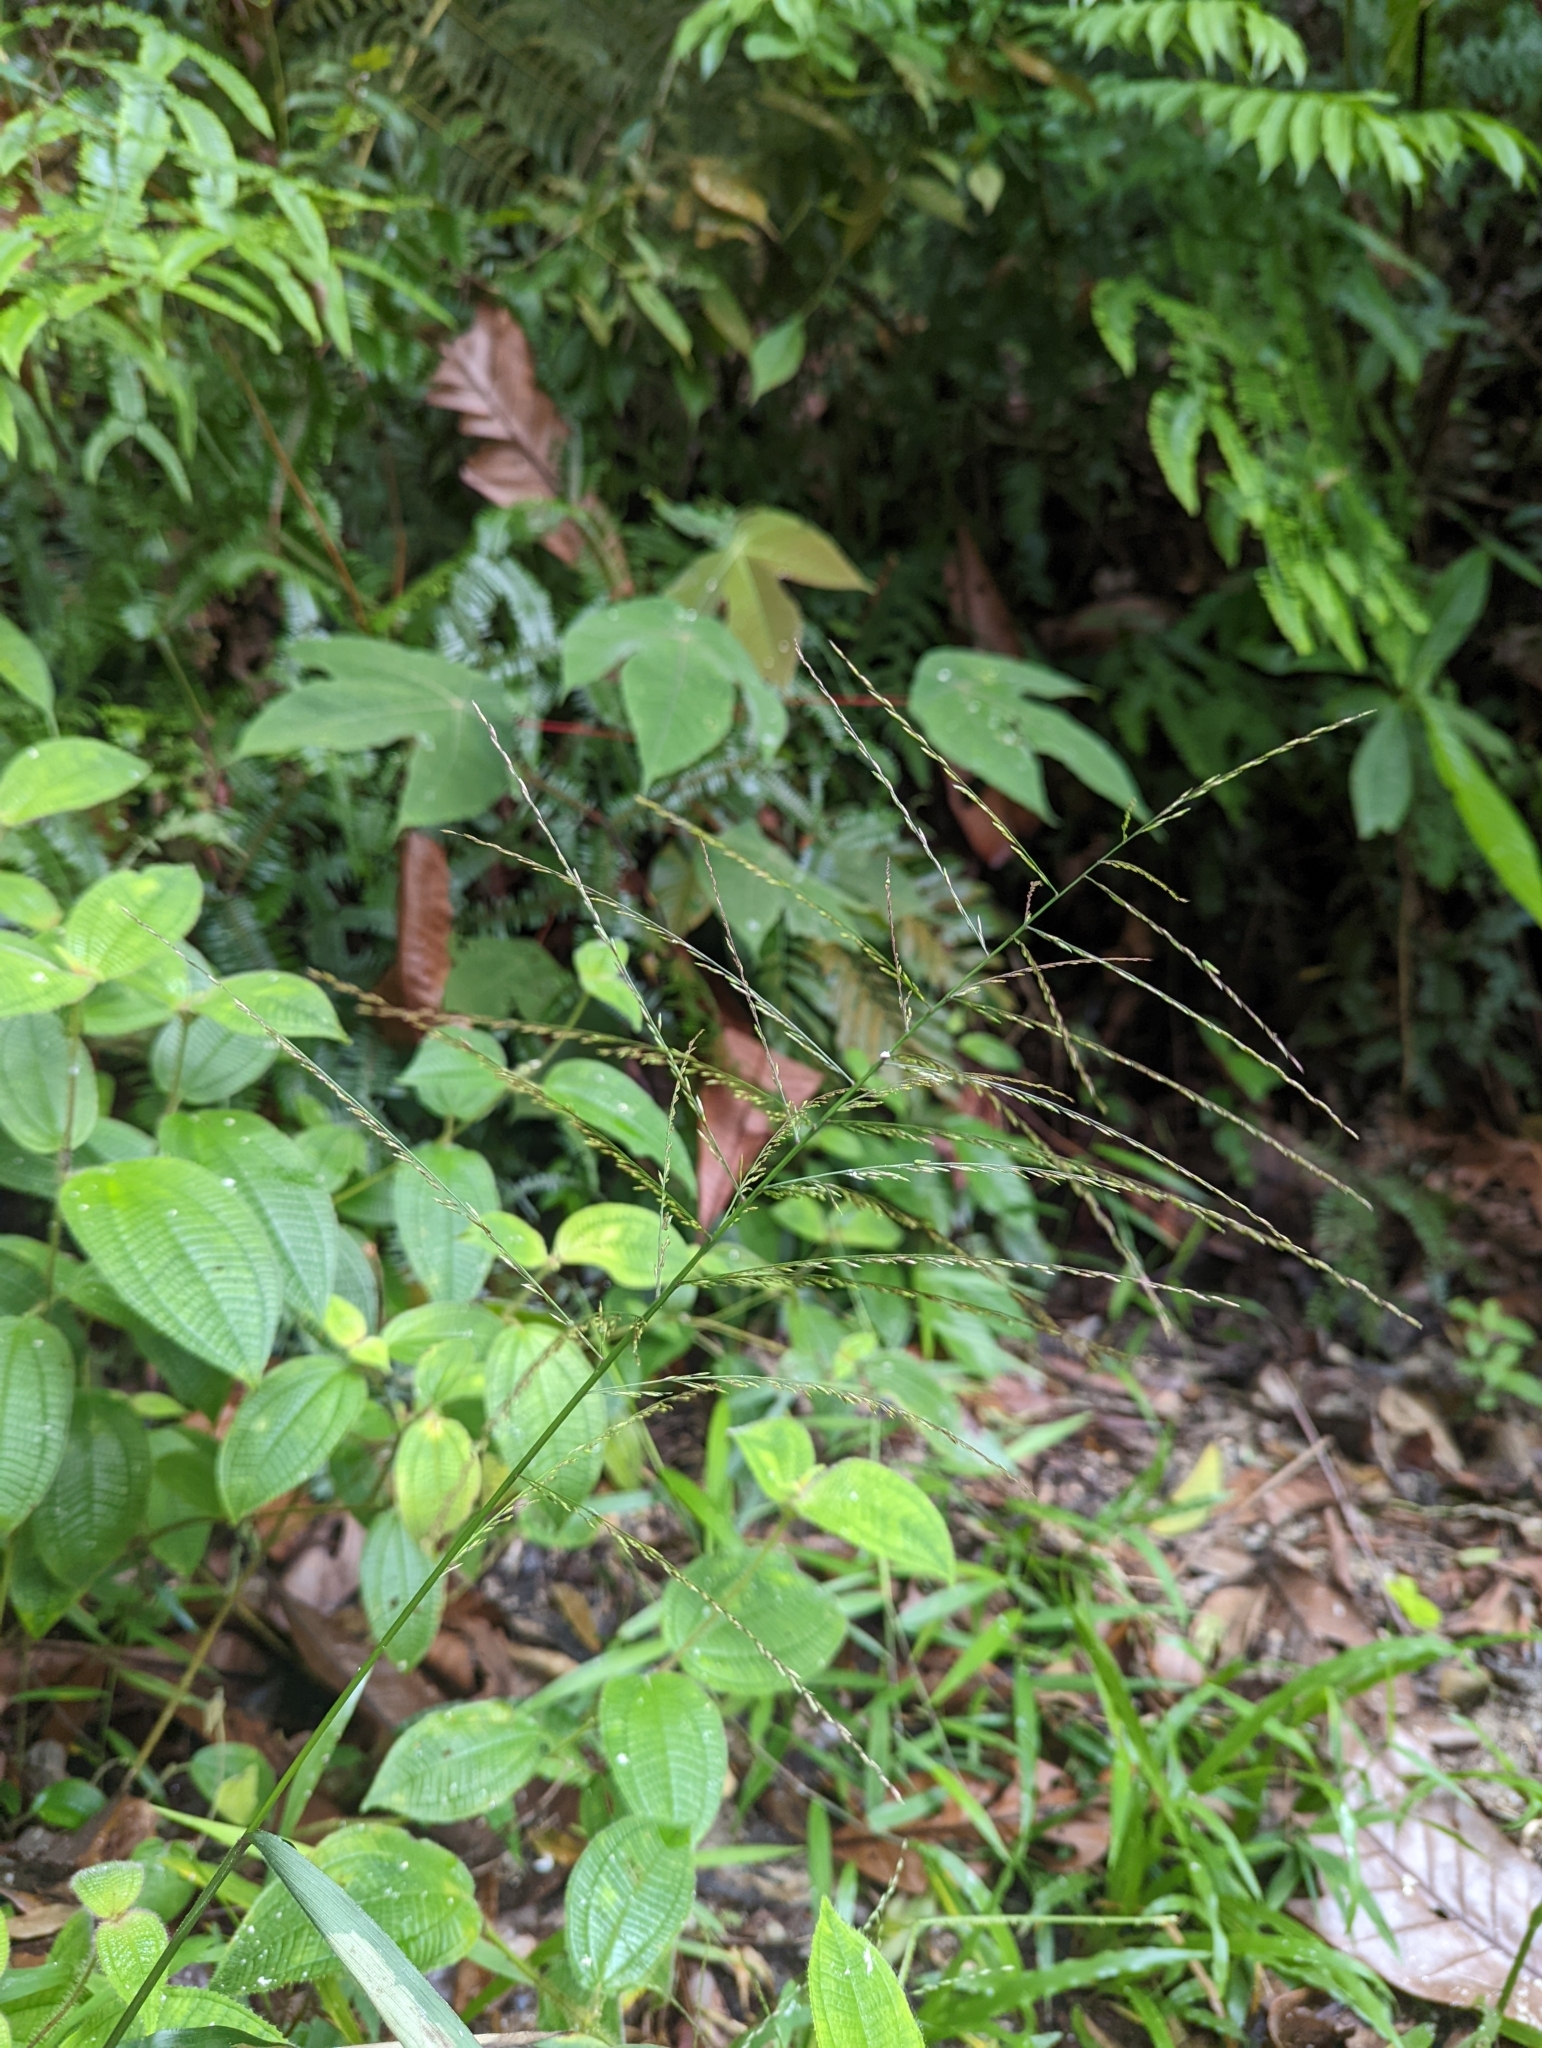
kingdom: Plantae
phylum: Tracheophyta
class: Liliopsida
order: Poales
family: Poaceae
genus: Centotheca
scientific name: Centotheca lappacea
